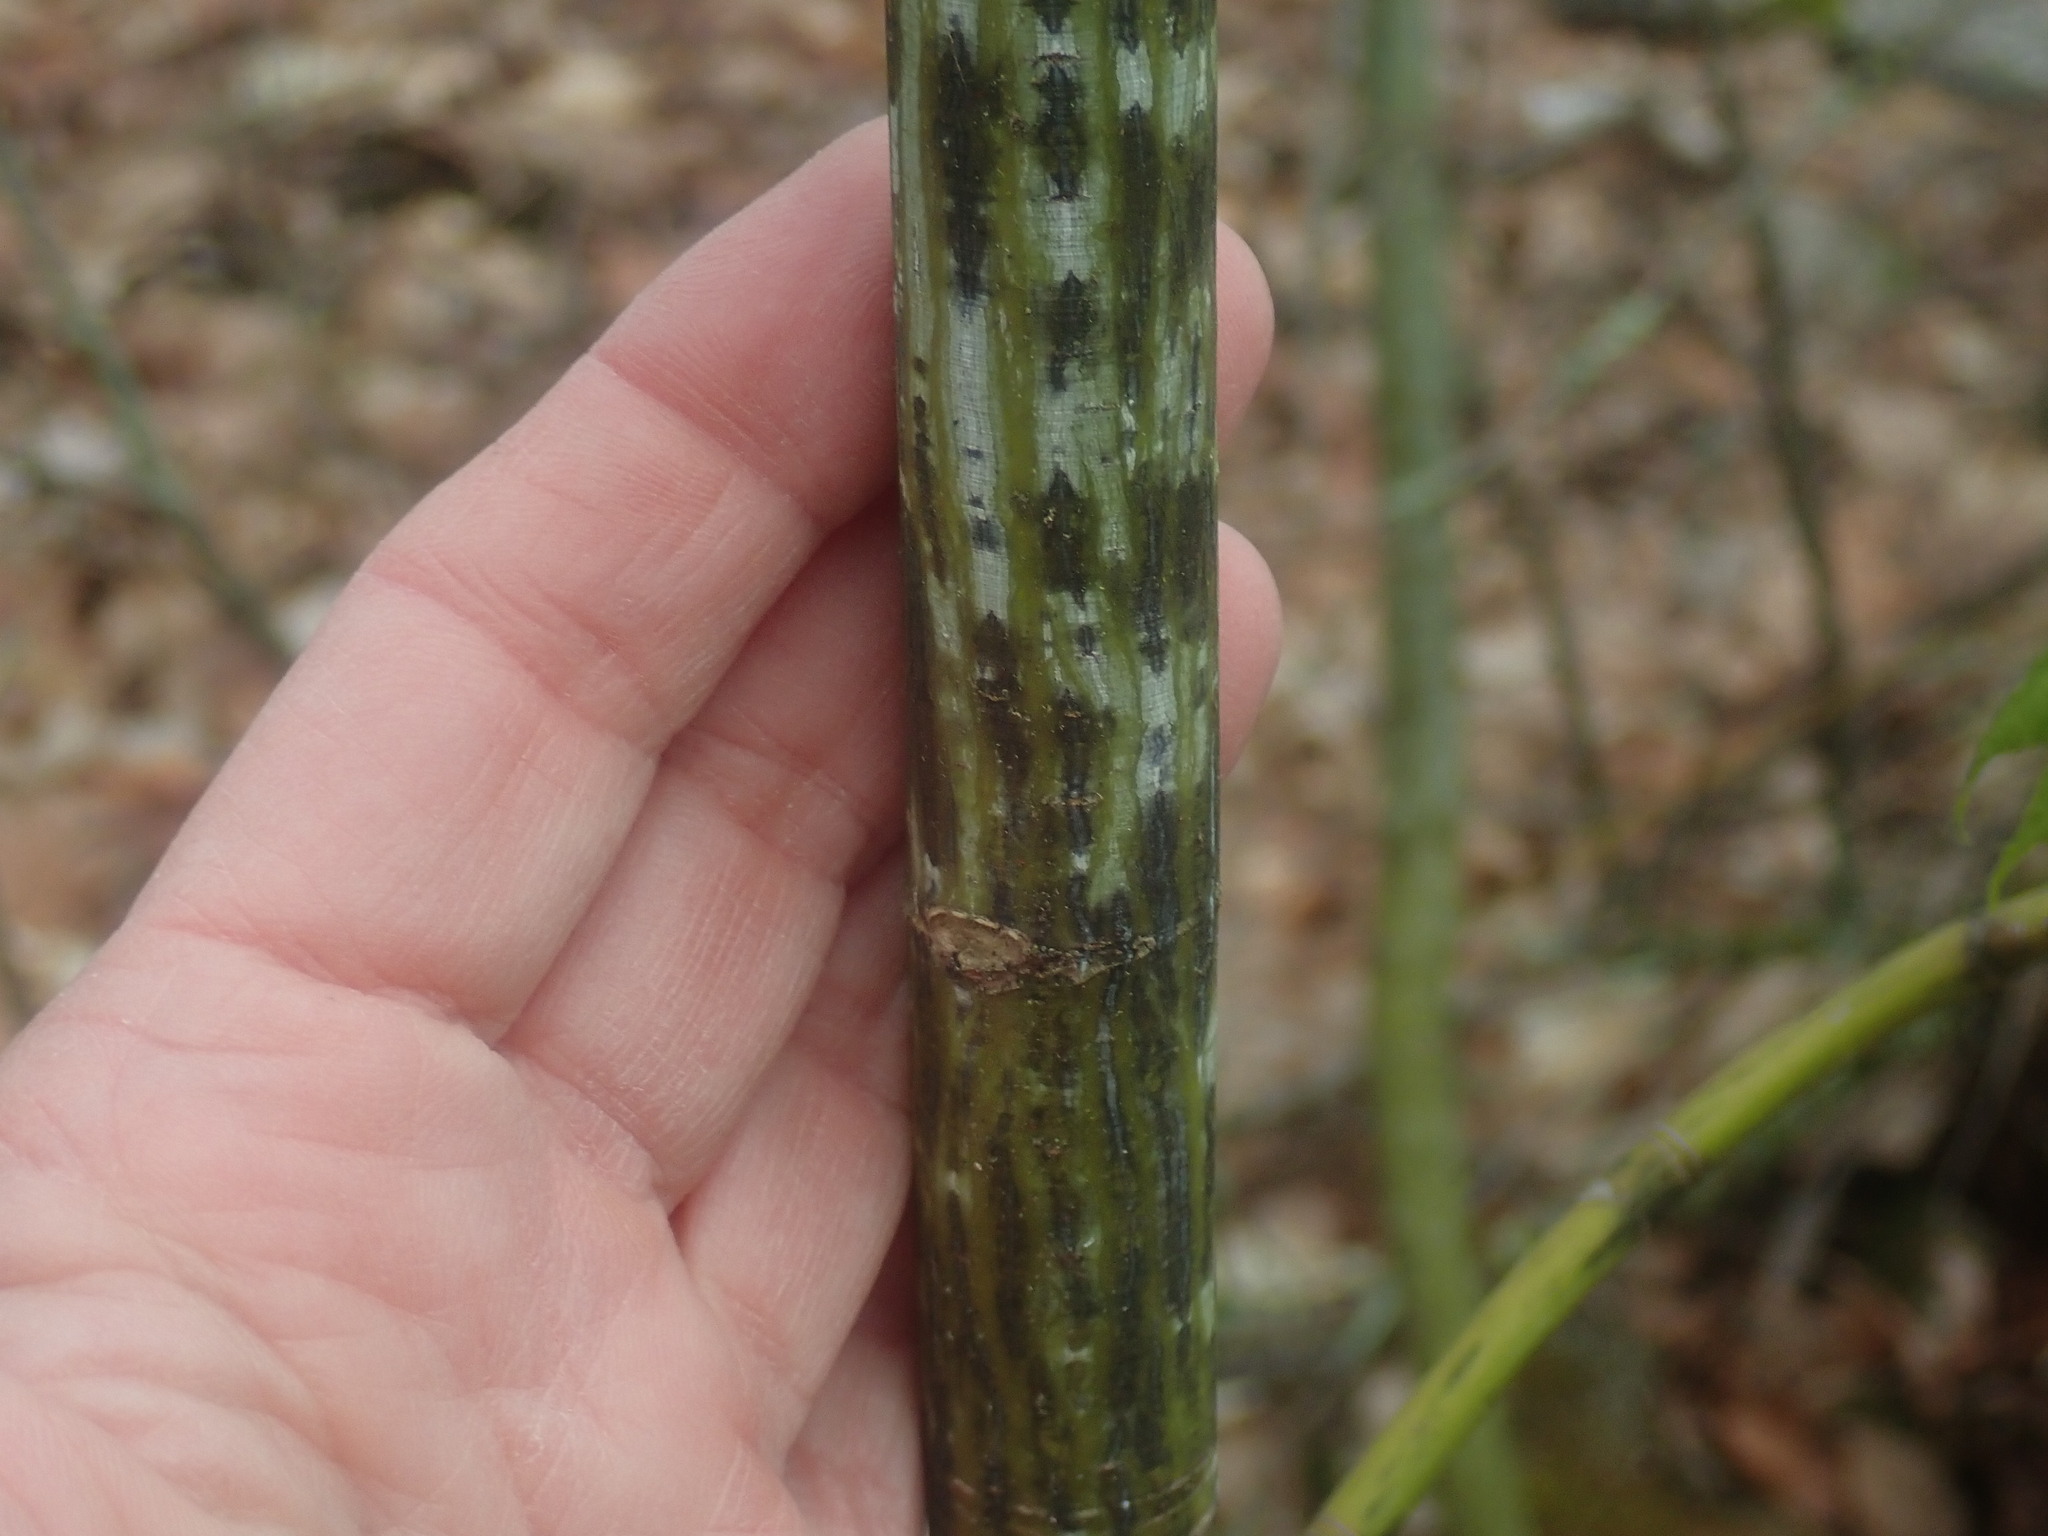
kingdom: Plantae
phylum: Tracheophyta
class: Magnoliopsida
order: Sapindales
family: Sapindaceae
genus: Acer
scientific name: Acer pensylvanicum
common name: Moosewood
